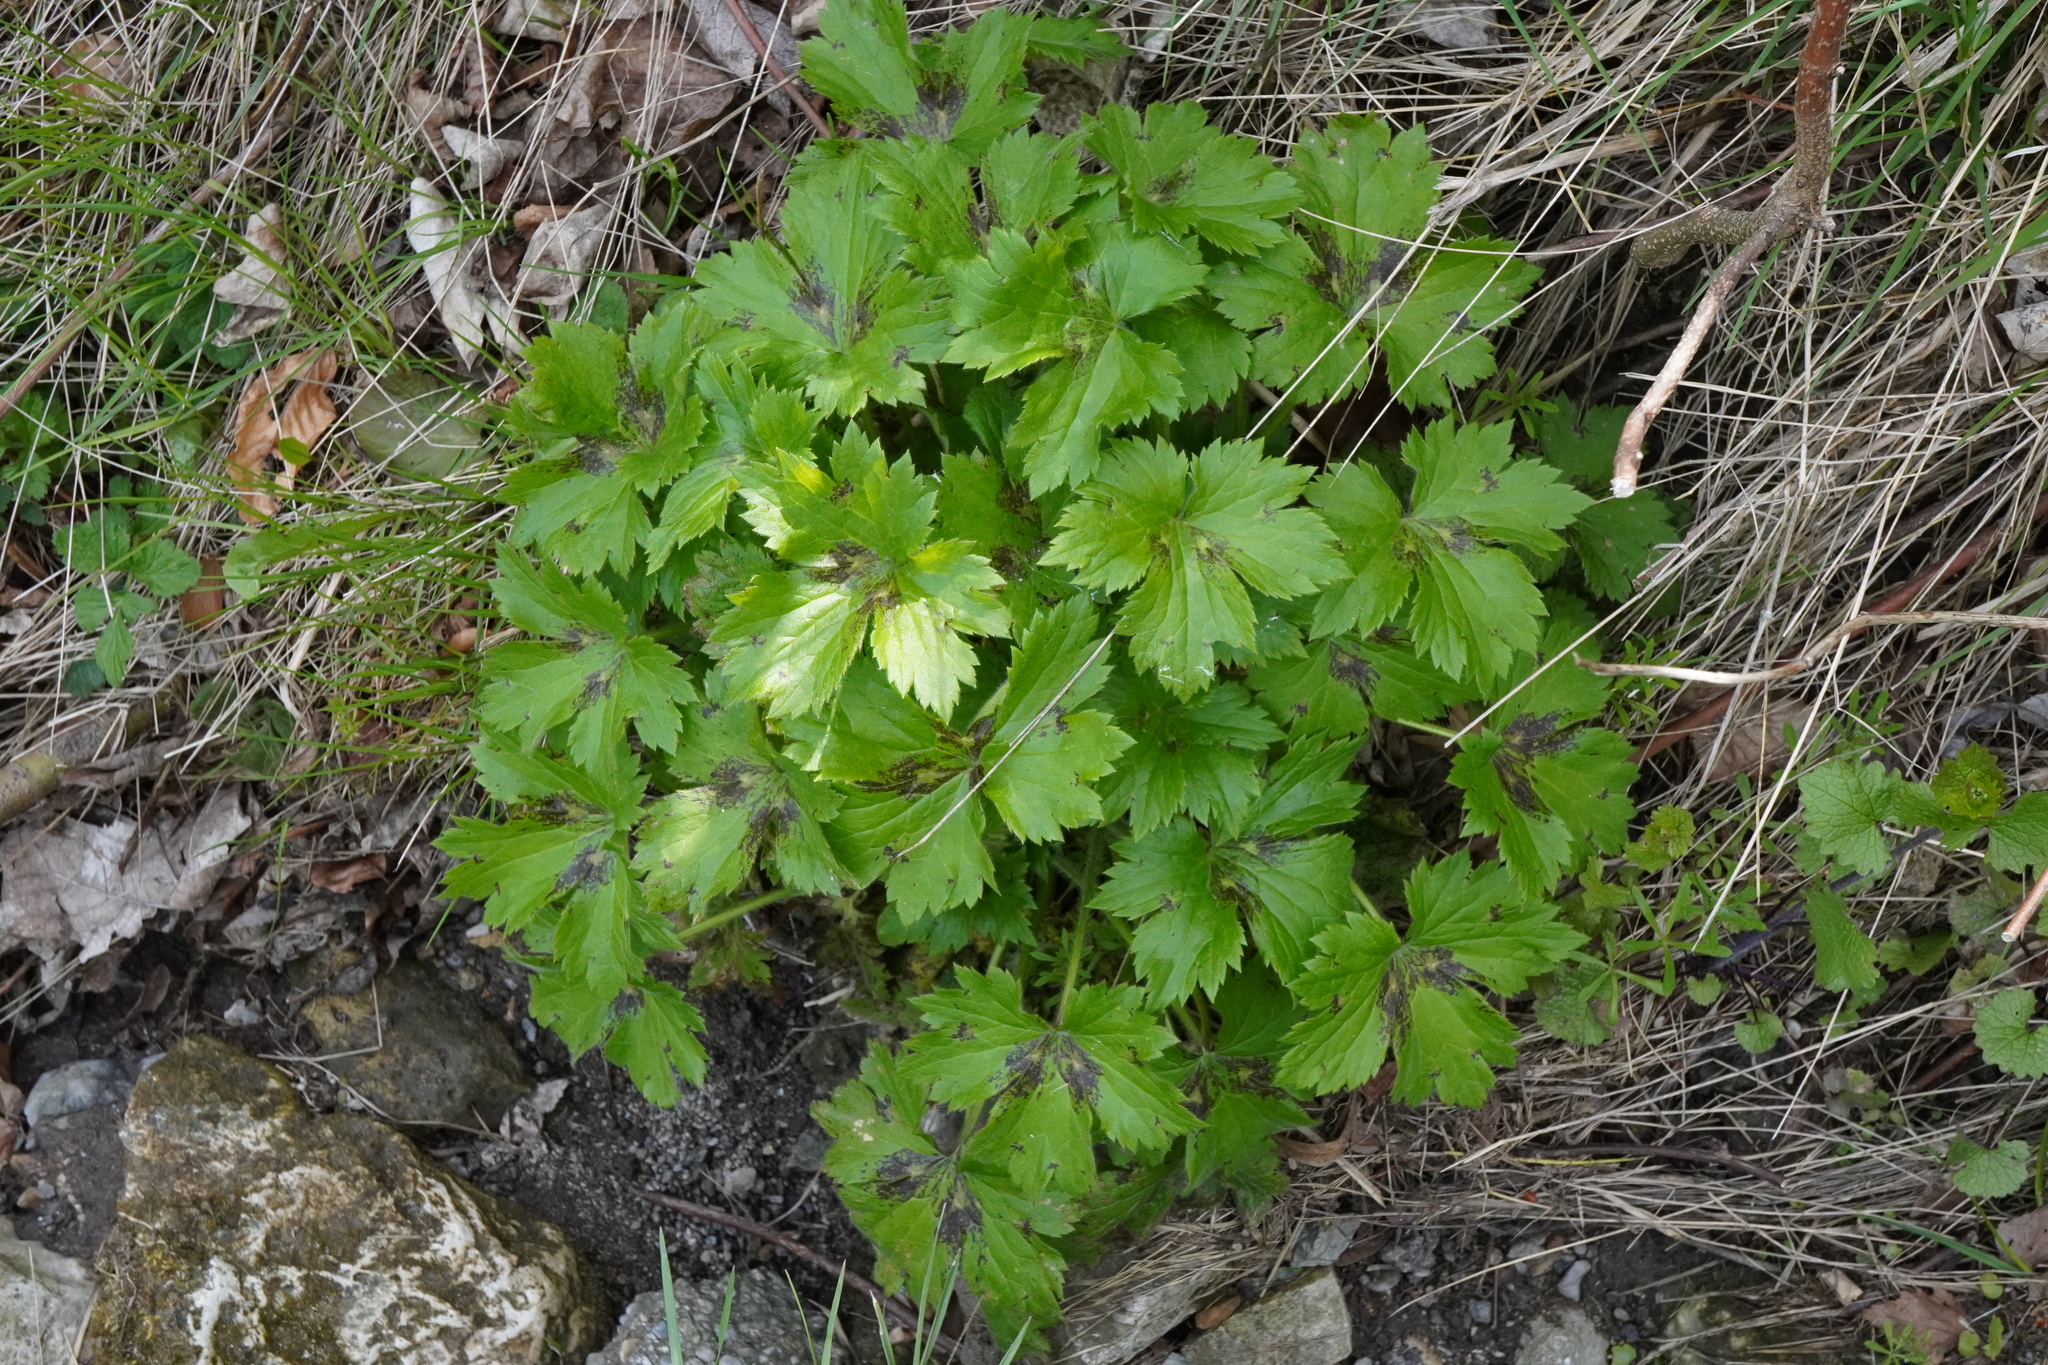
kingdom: Plantae
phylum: Tracheophyta
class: Magnoliopsida
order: Ranunculales
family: Ranunculaceae
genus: Ranunculus
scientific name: Ranunculus lanuginosus
